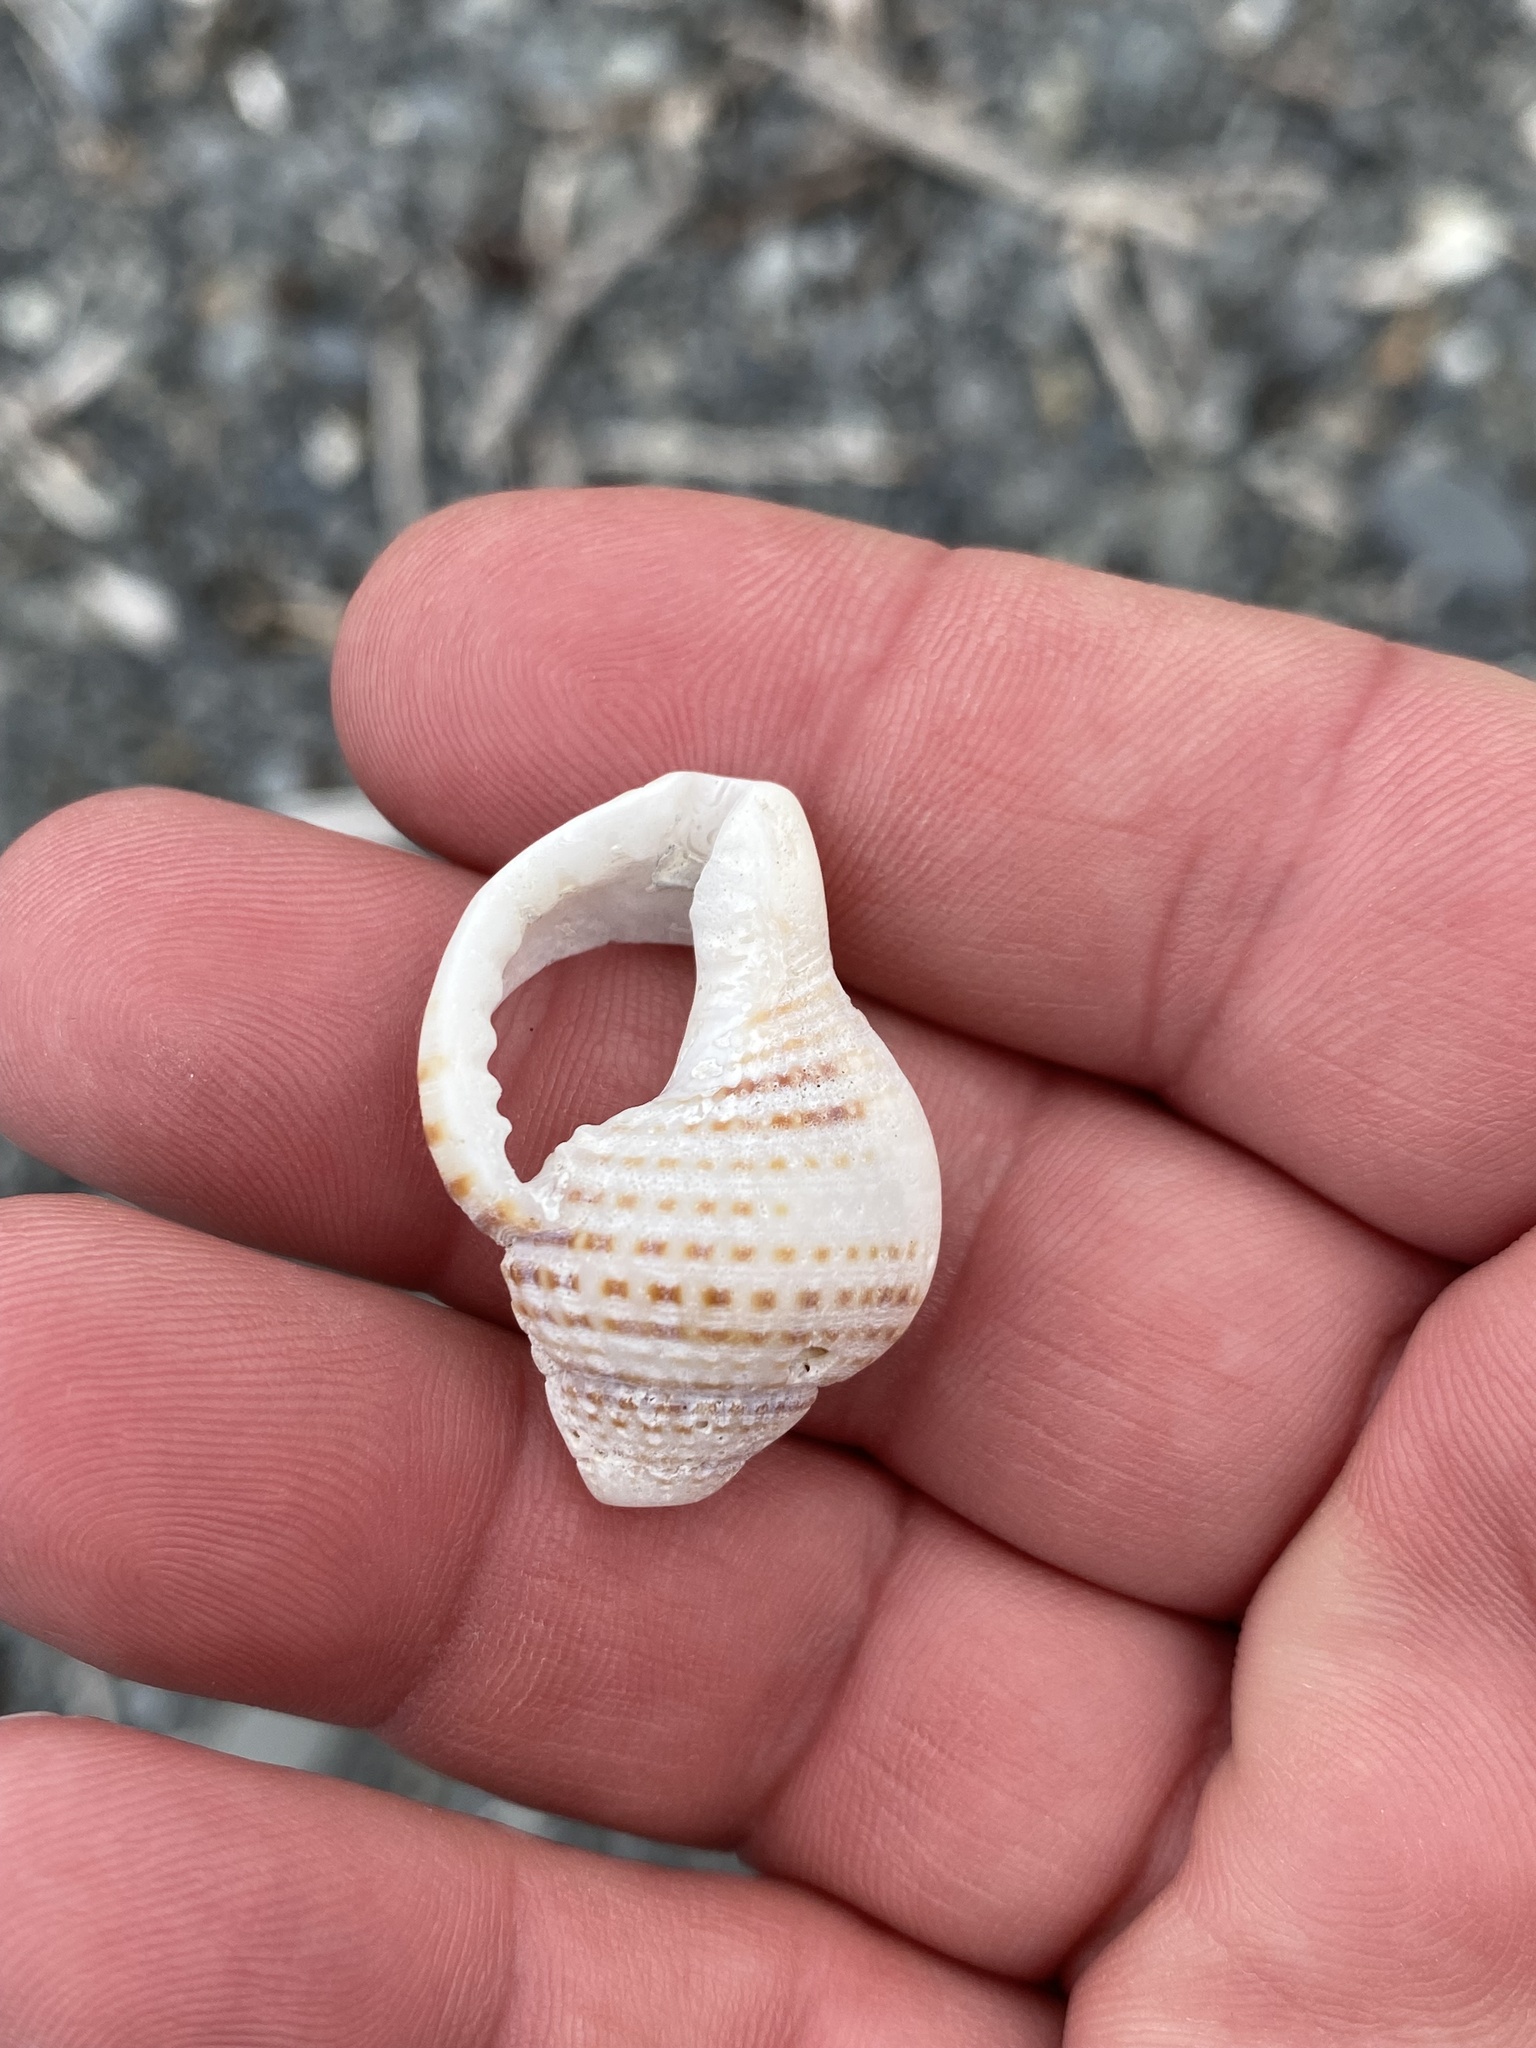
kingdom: Animalia
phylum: Mollusca
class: Gastropoda
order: Littorinimorpha
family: Cymatiidae
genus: Argobuccinum
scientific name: Argobuccinum pustulosum
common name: Pustular triton
